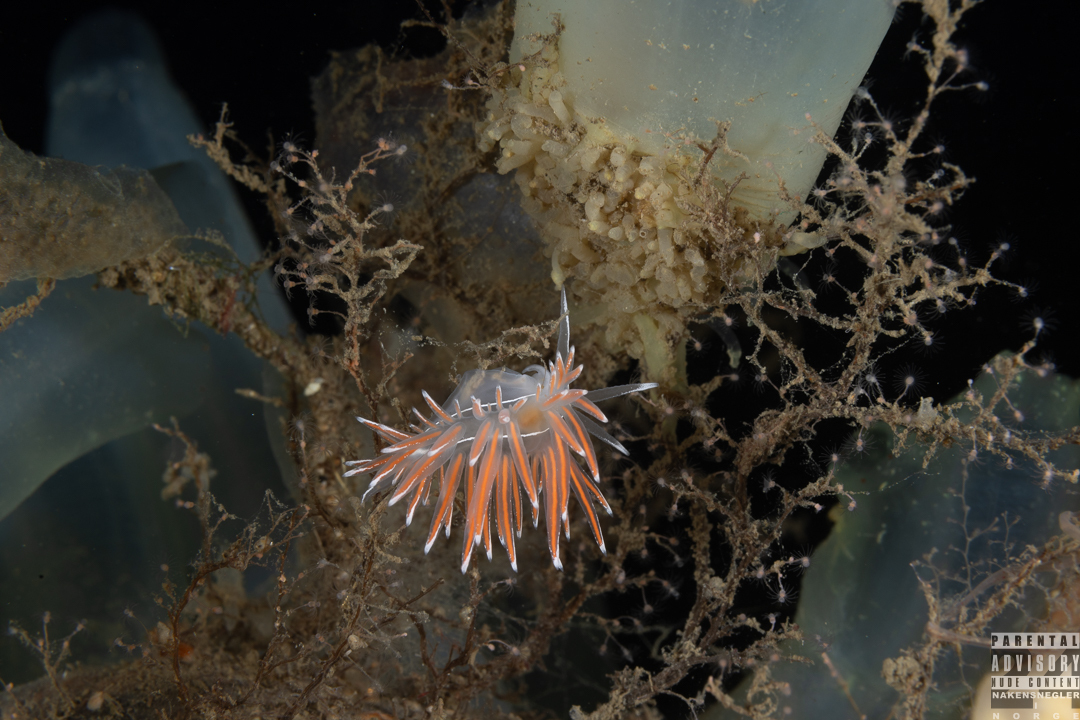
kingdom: Animalia
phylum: Mollusca
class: Gastropoda
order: Nudibranchia
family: Coryphellidae
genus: Coryphella
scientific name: Coryphella lineata
